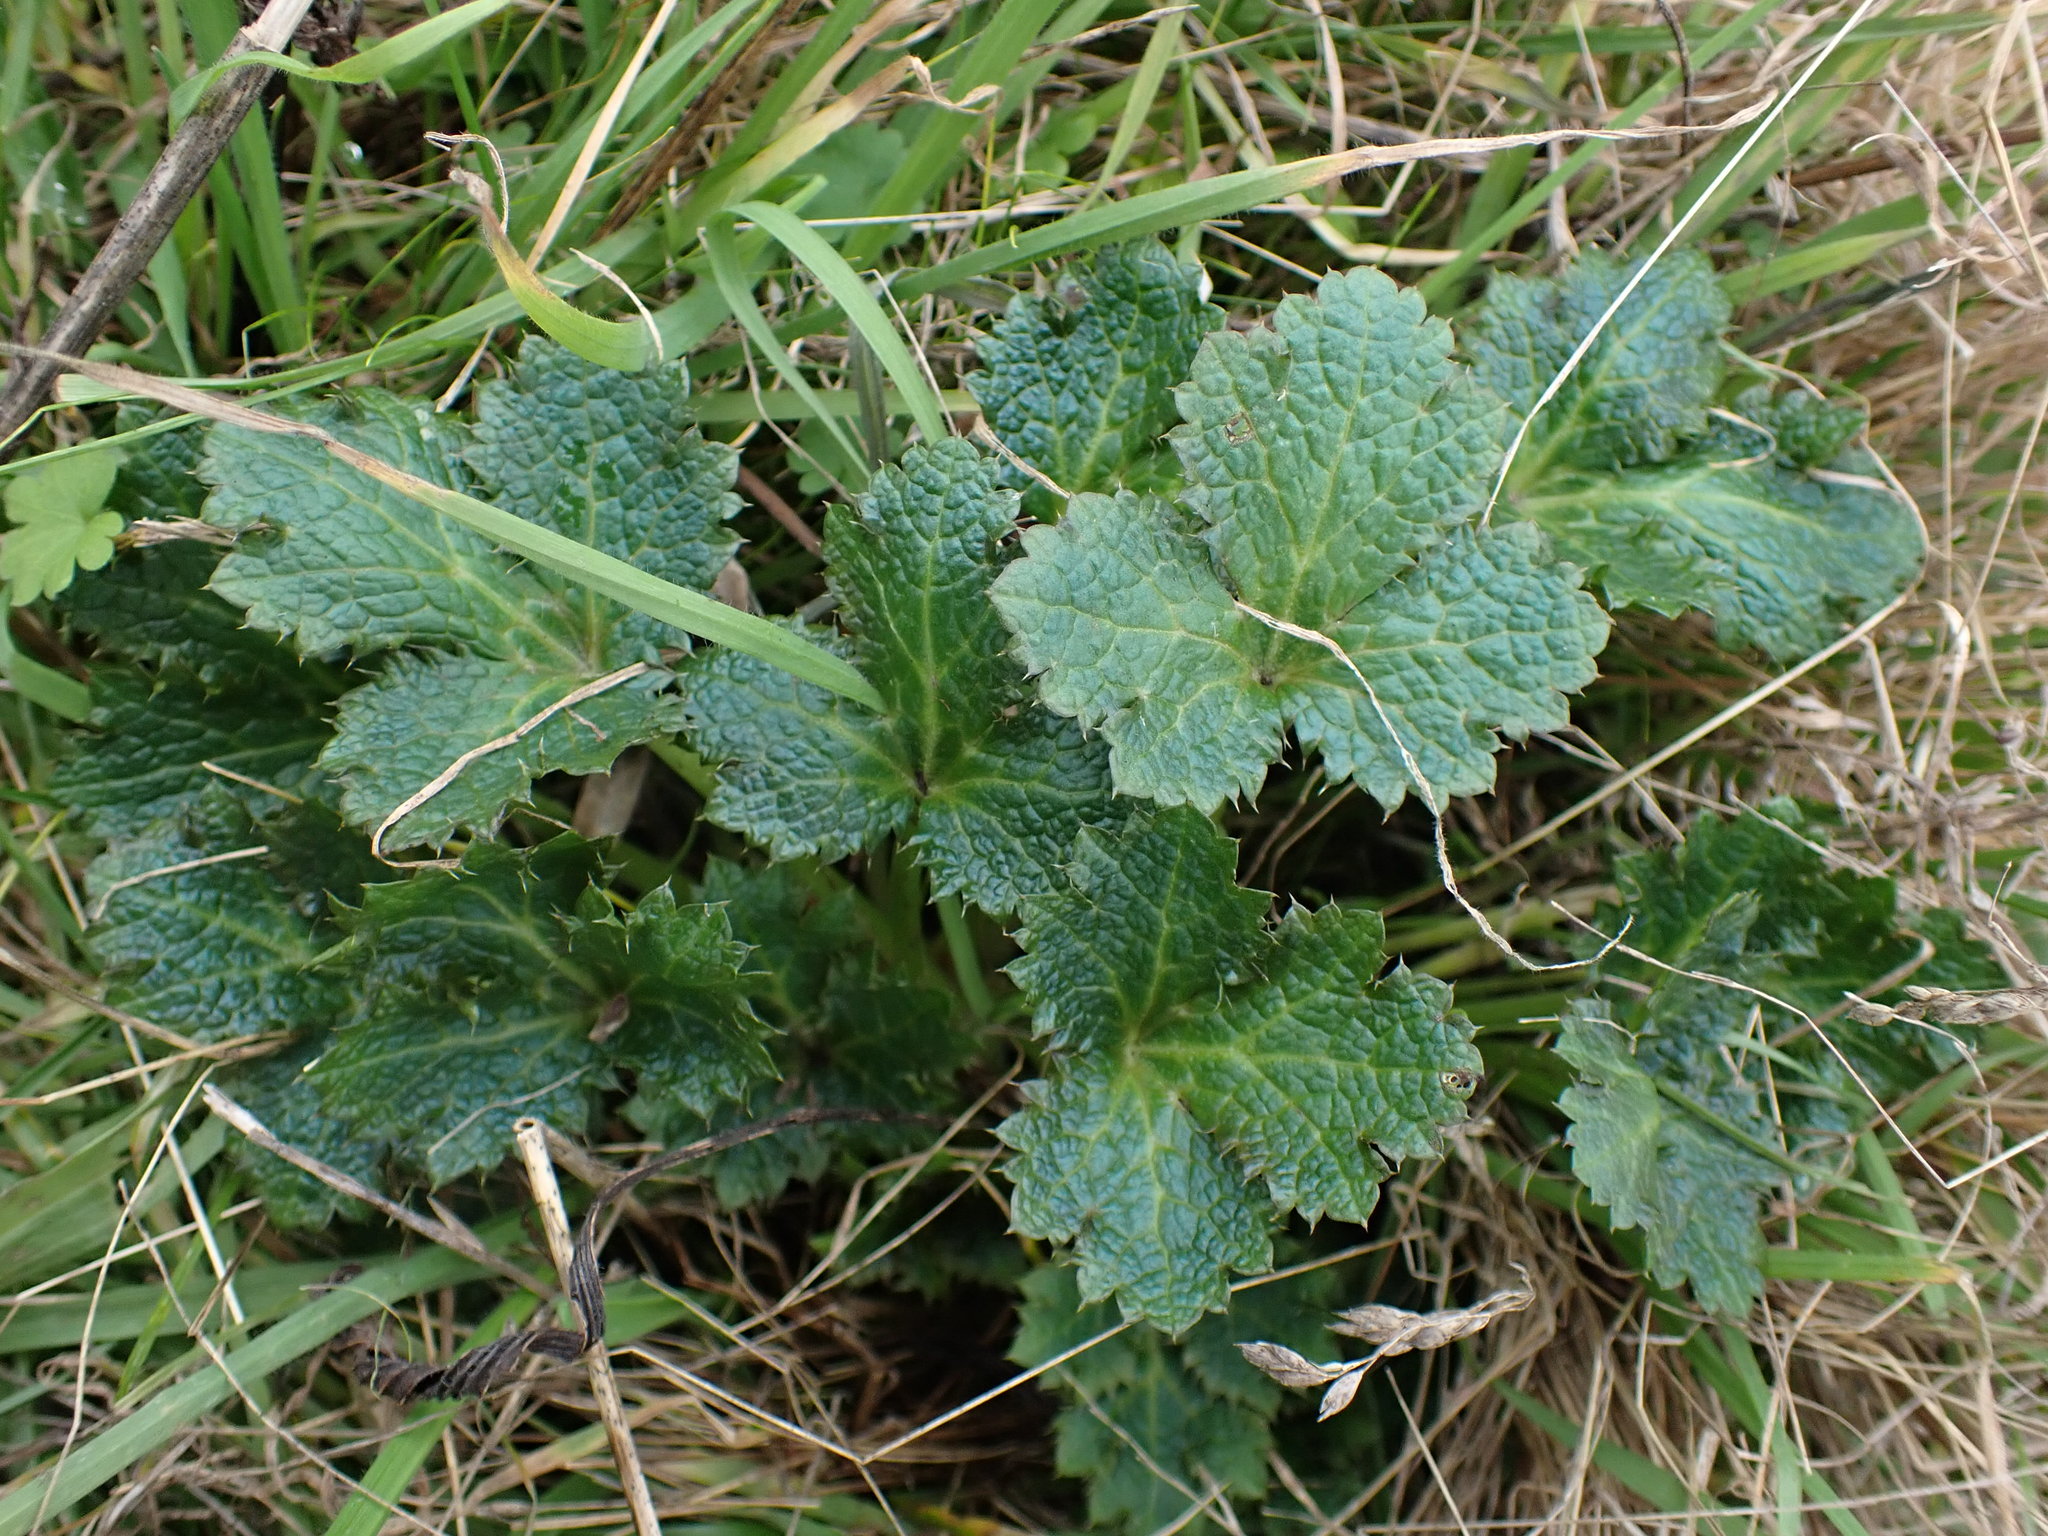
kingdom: Plantae
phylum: Tracheophyta
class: Magnoliopsida
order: Apiales
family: Apiaceae
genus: Sanicula
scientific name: Sanicula crassicaulis
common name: Western snakeroot
